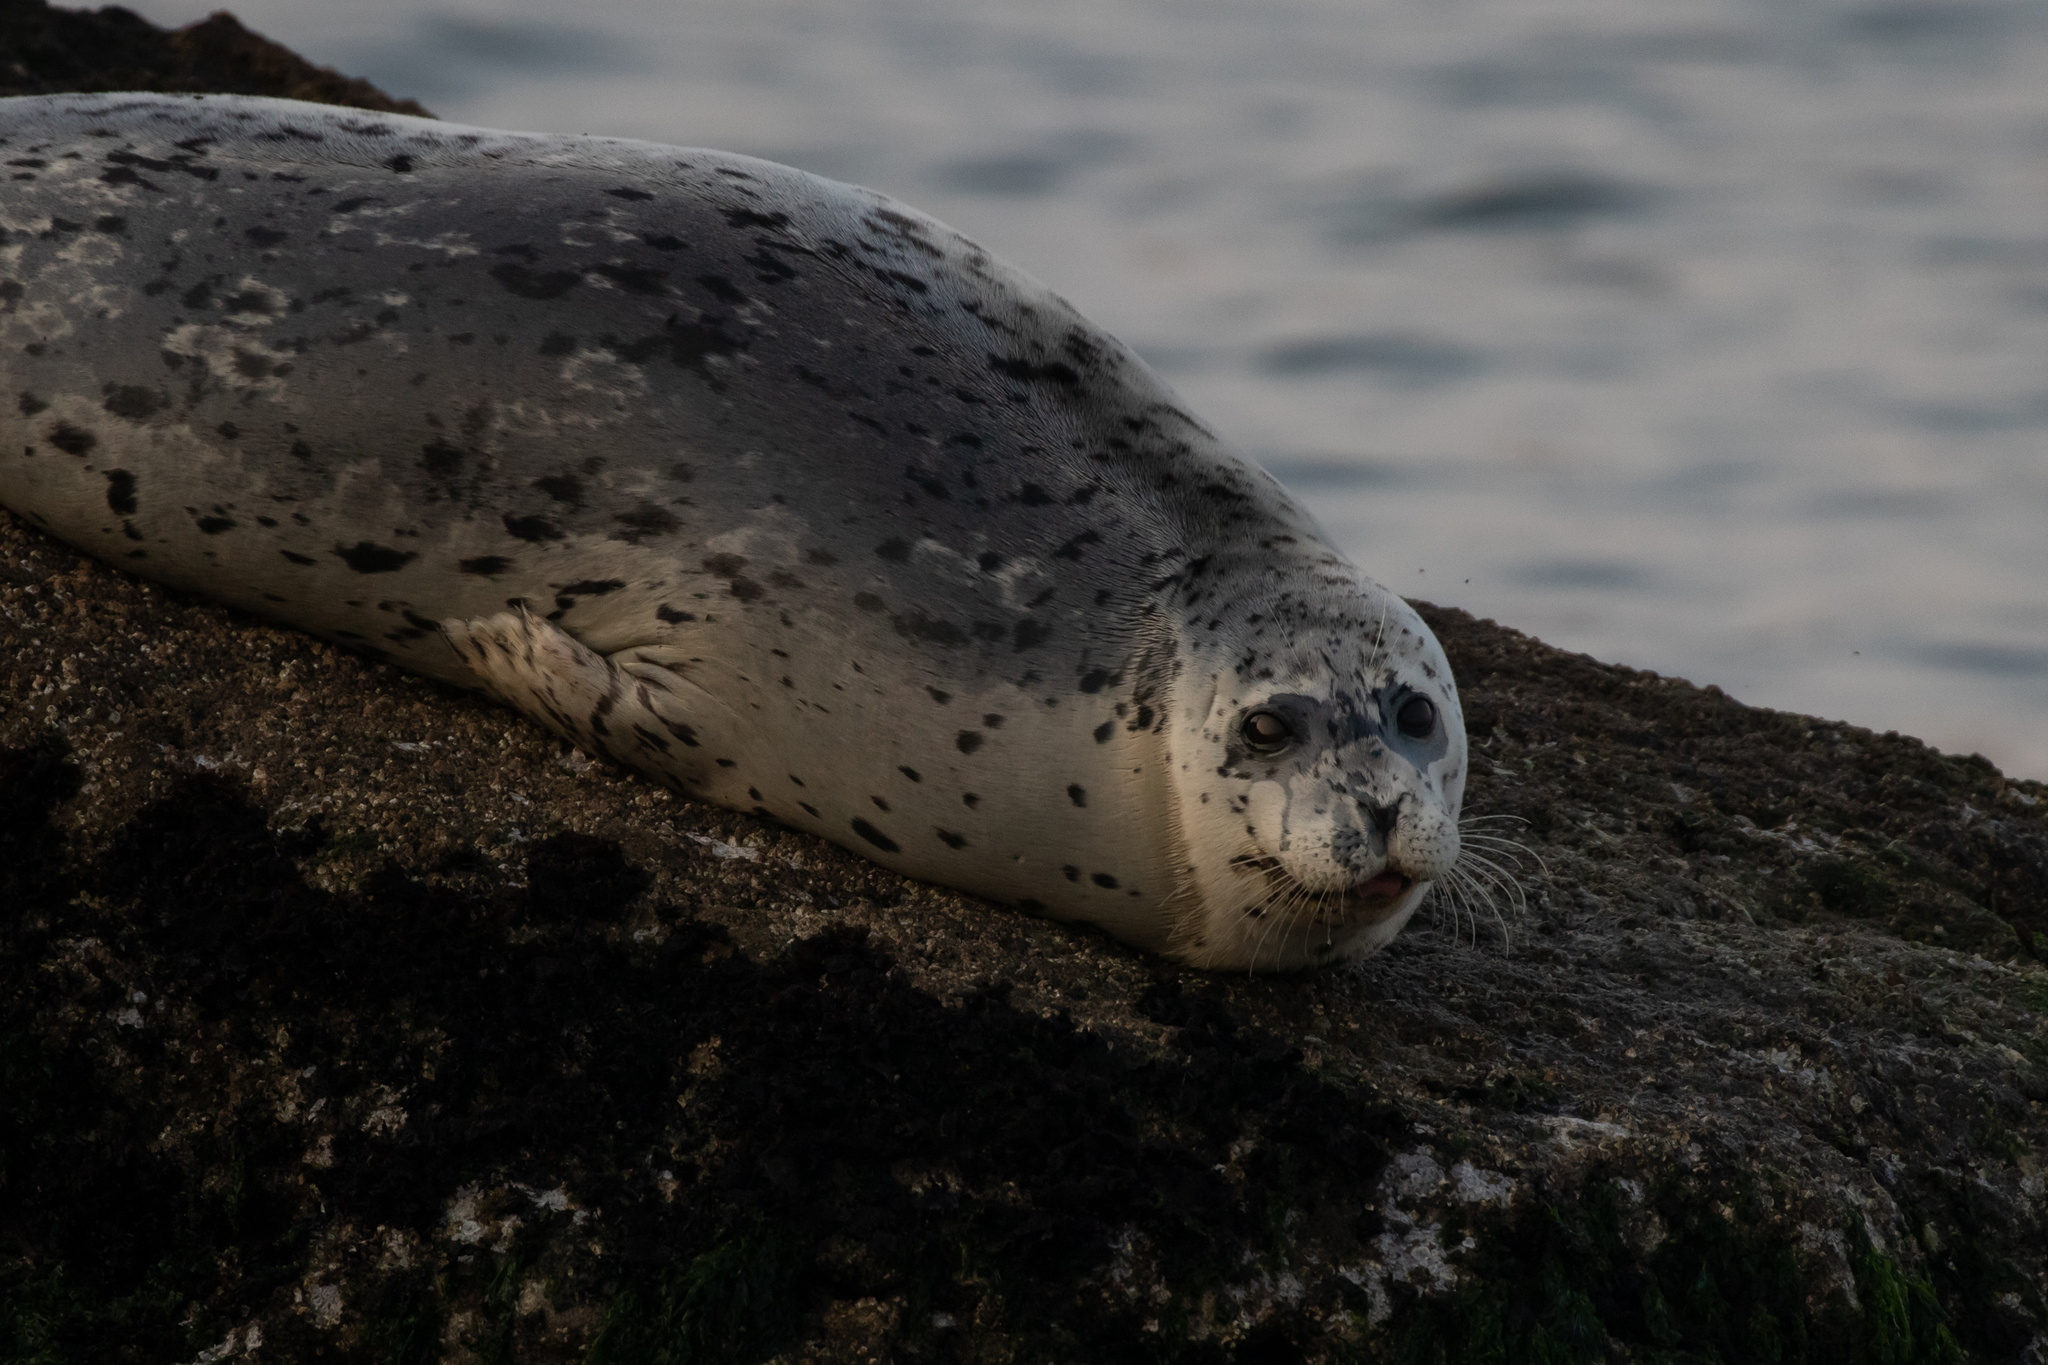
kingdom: Animalia
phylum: Chordata
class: Mammalia
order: Carnivora
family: Phocidae
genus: Phoca
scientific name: Phoca vitulina
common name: Harbor seal
